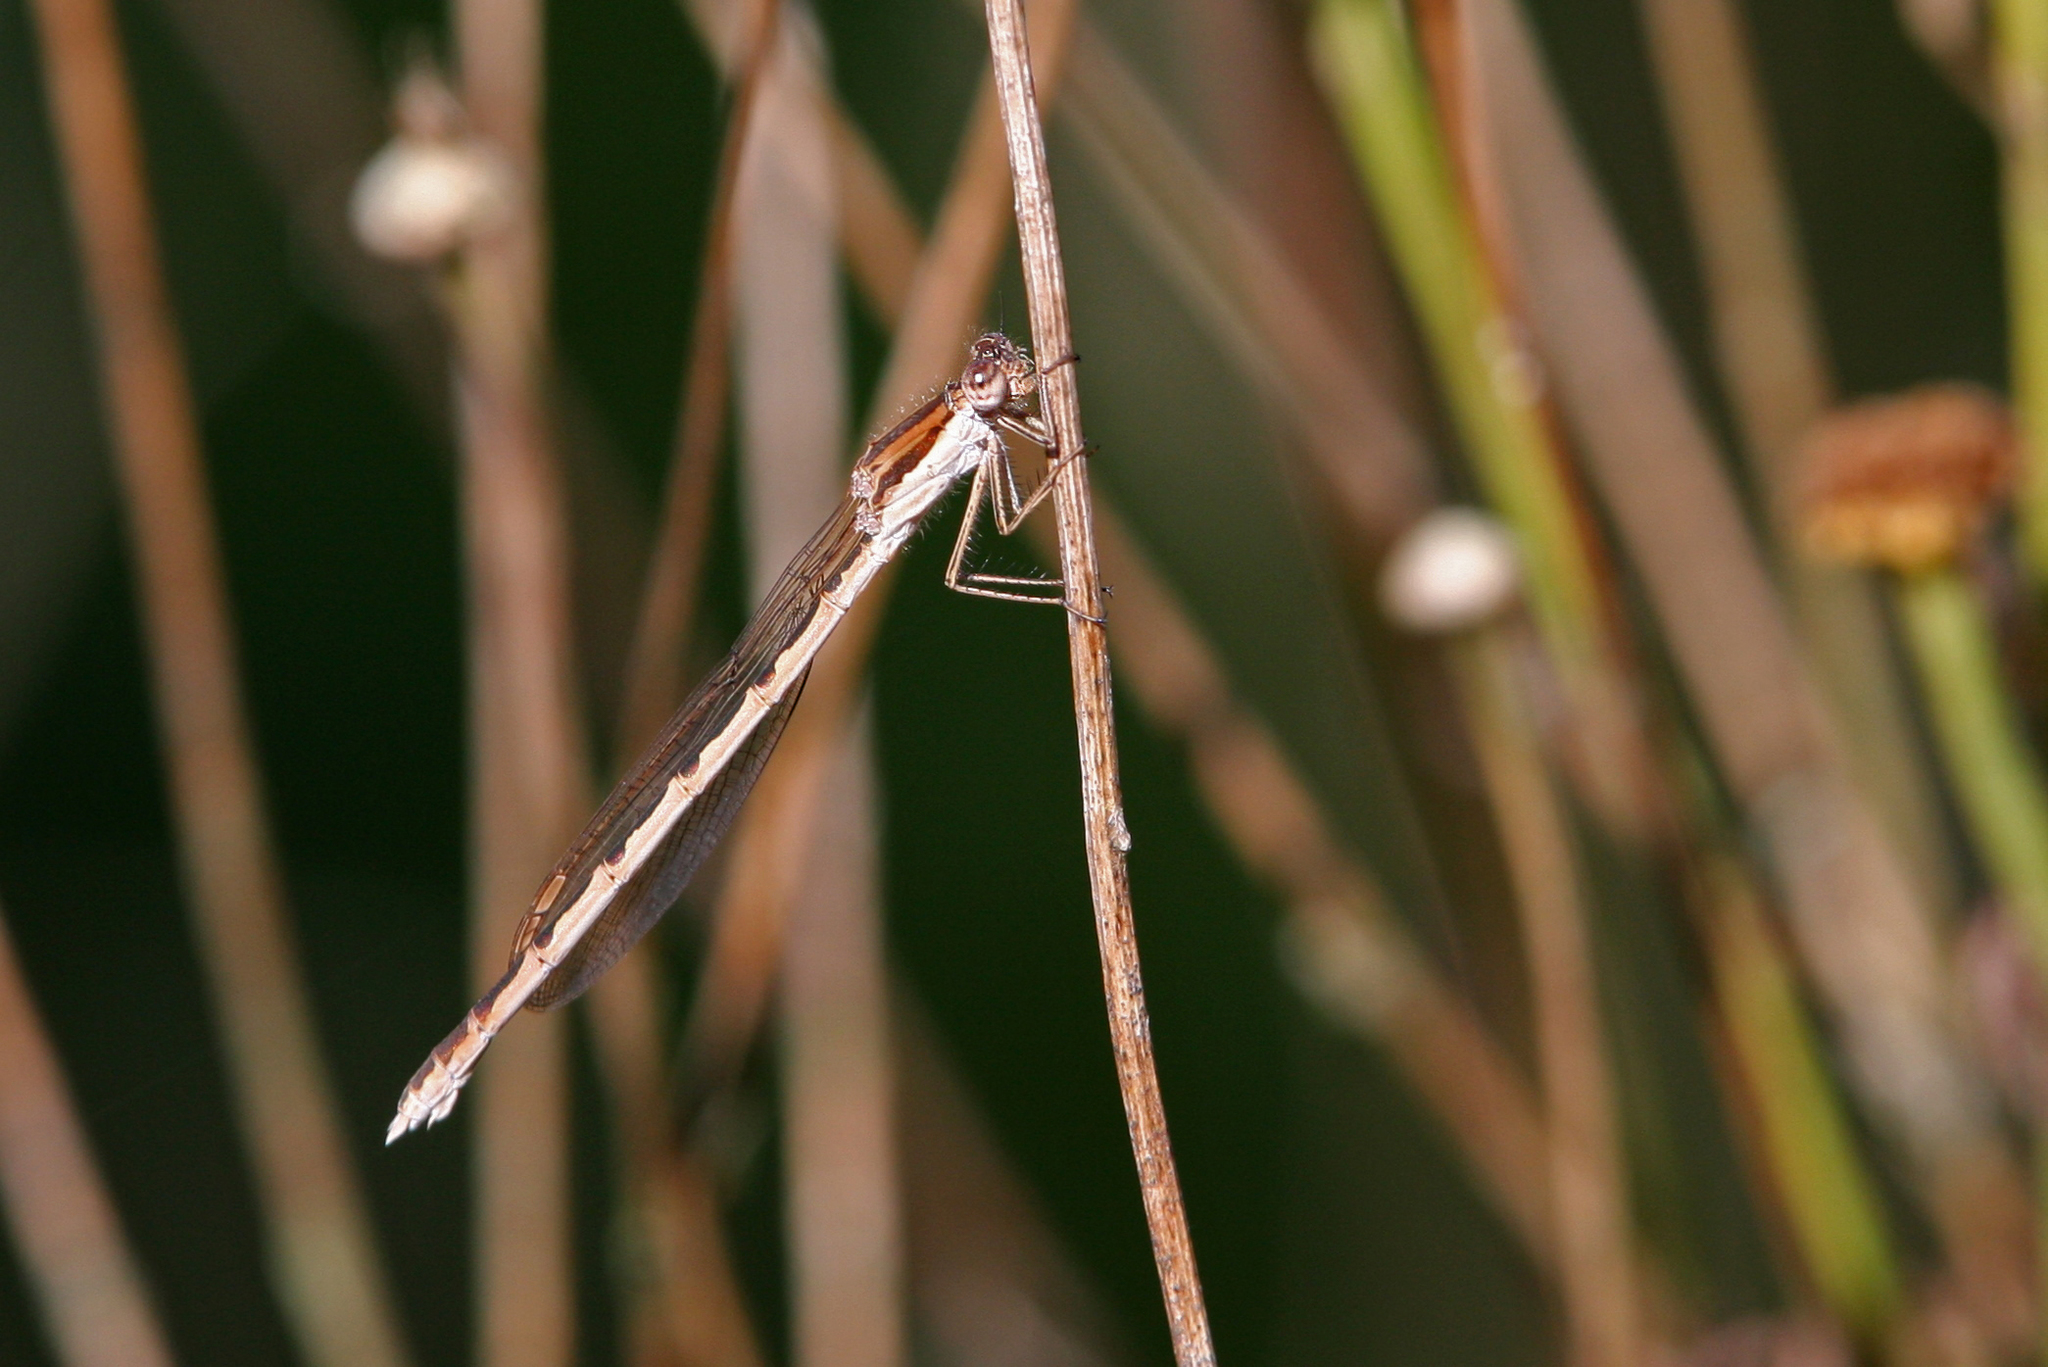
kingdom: Animalia
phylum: Arthropoda
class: Insecta
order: Odonata
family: Lestidae
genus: Sympecma
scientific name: Sympecma fusca
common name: Common winter damsel
